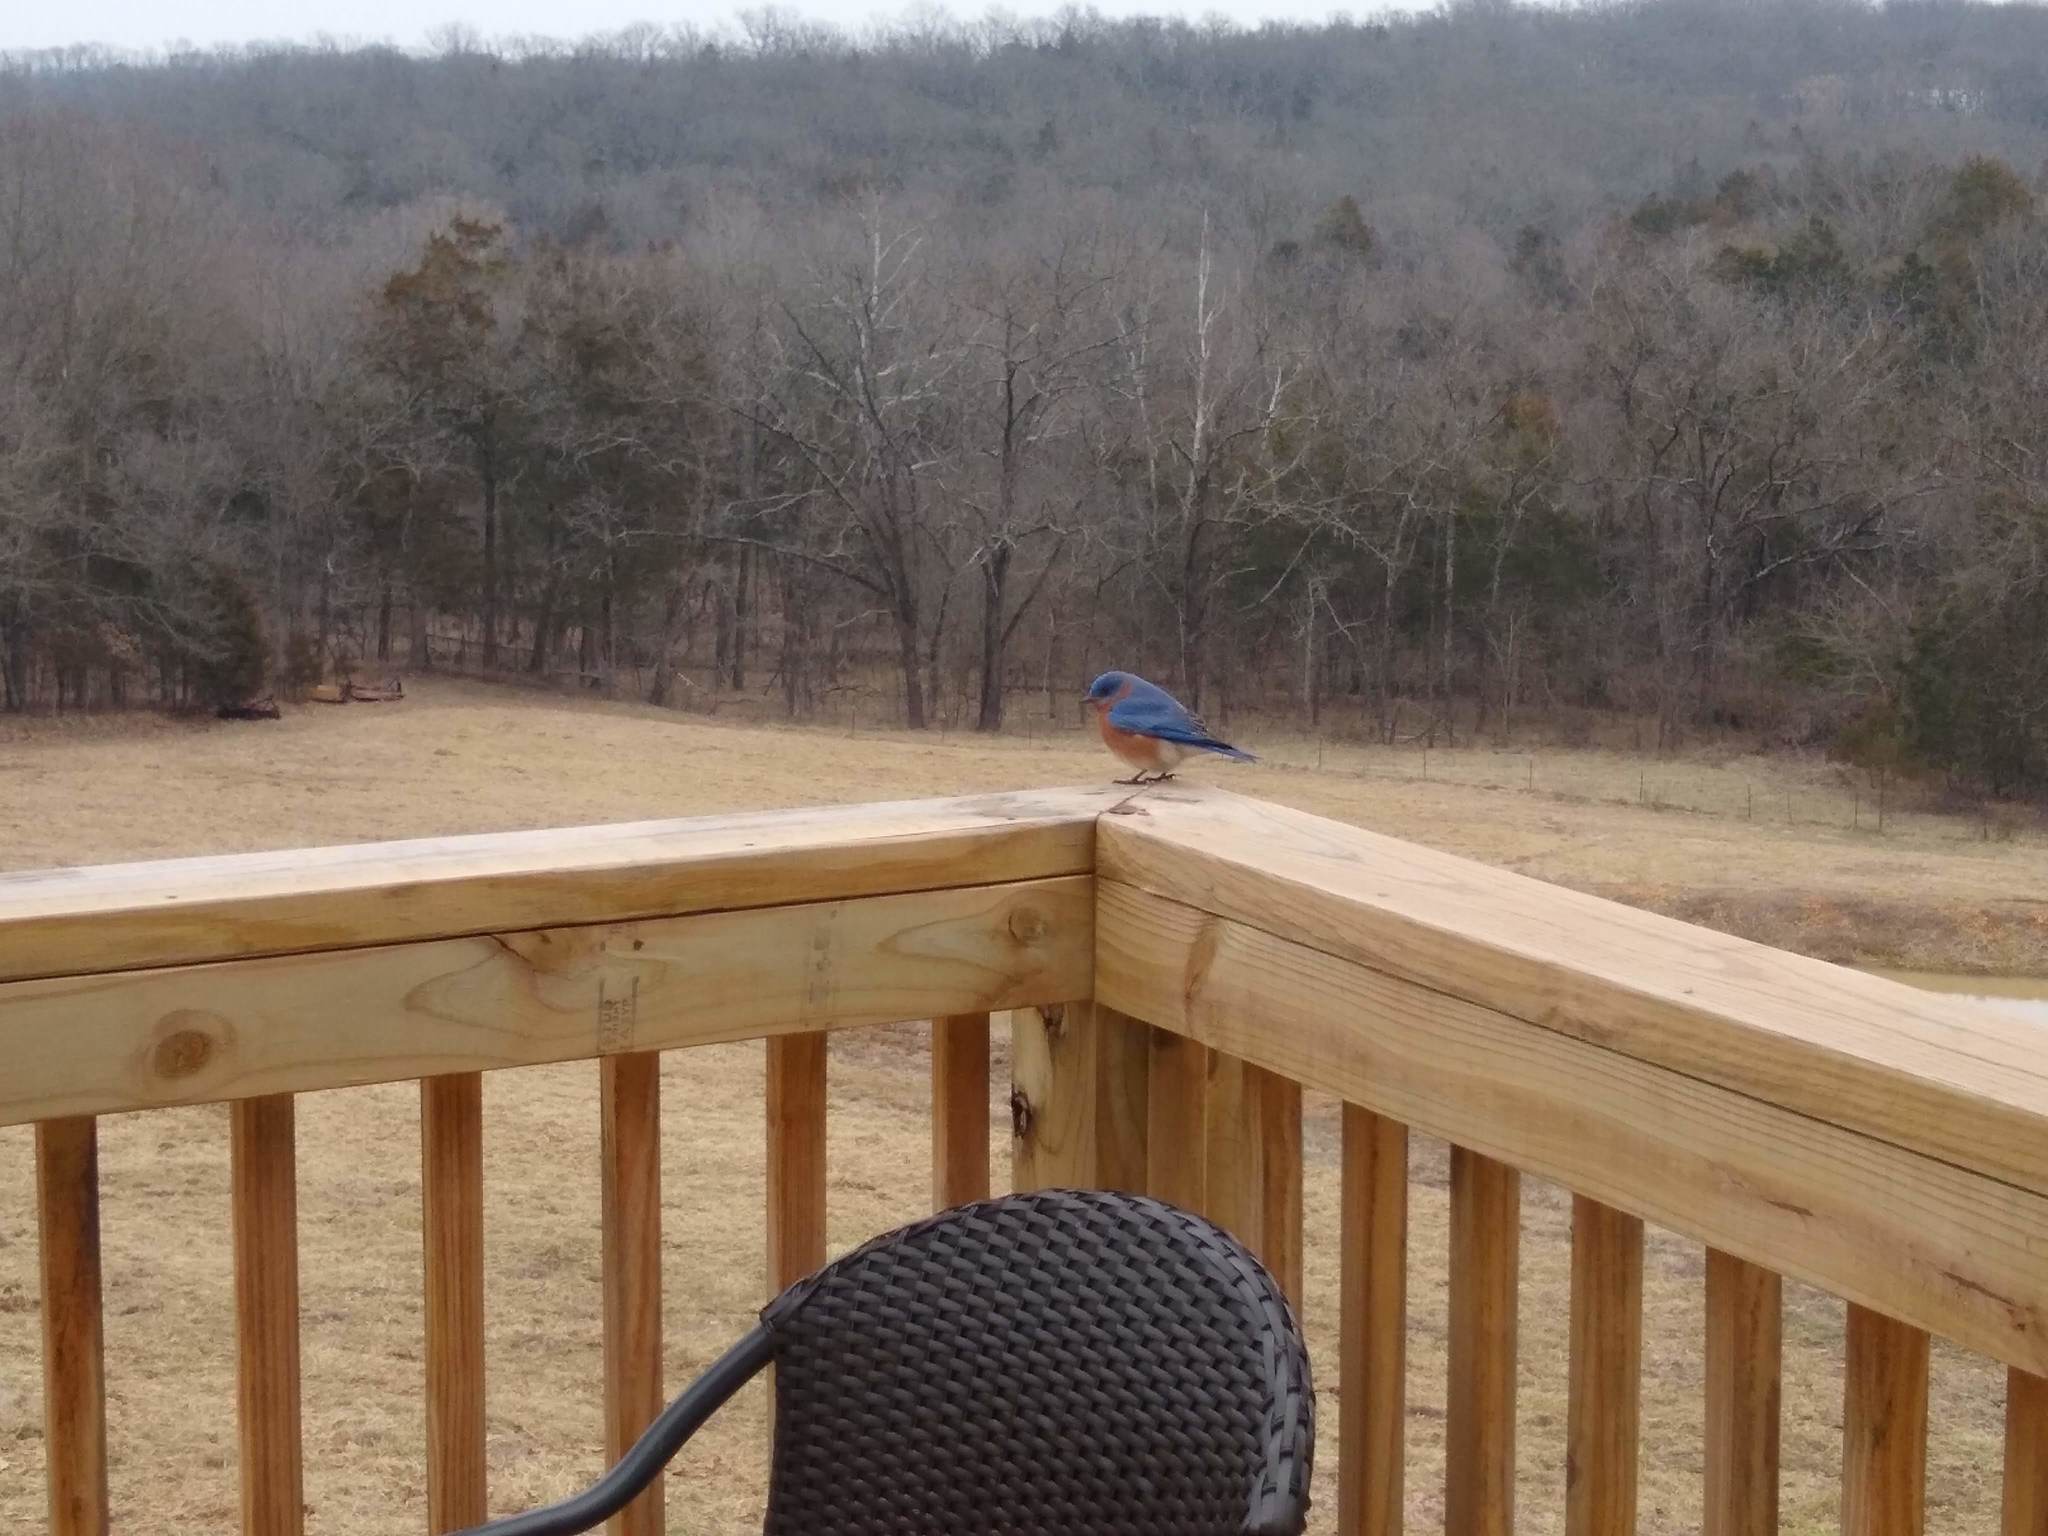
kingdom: Animalia
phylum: Chordata
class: Aves
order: Passeriformes
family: Turdidae
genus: Sialia
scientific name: Sialia sialis
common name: Eastern bluebird
